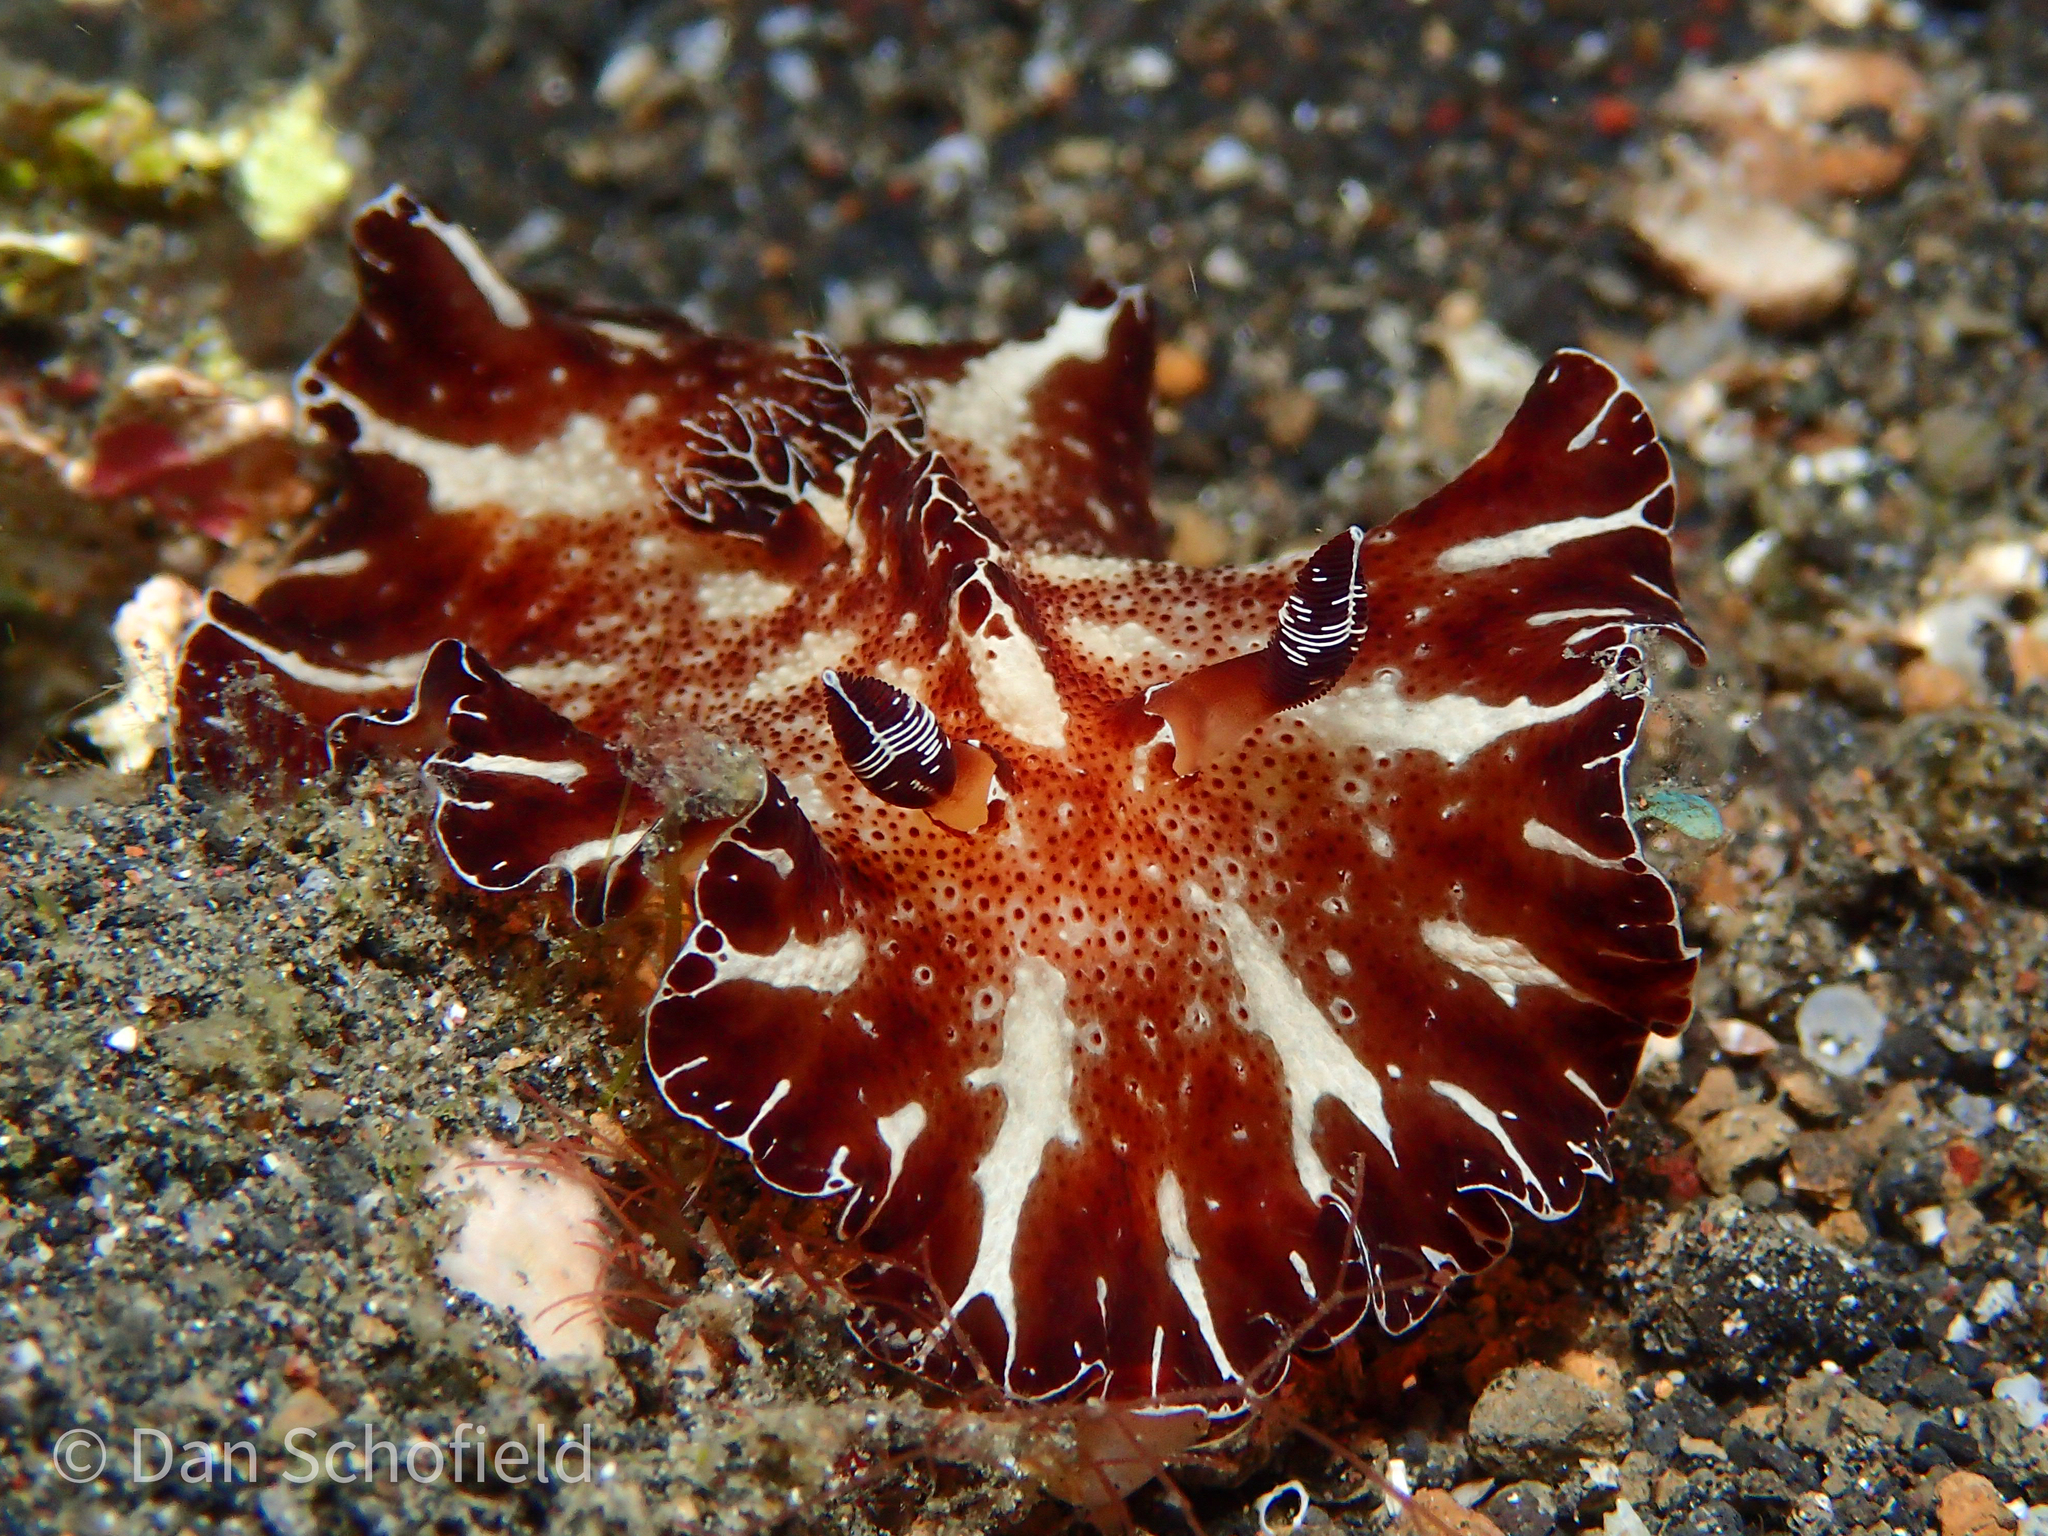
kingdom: Animalia
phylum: Mollusca
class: Gastropoda
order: Nudibranchia
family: Discodorididae
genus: Discodoris
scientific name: Discodoris boholiensis
